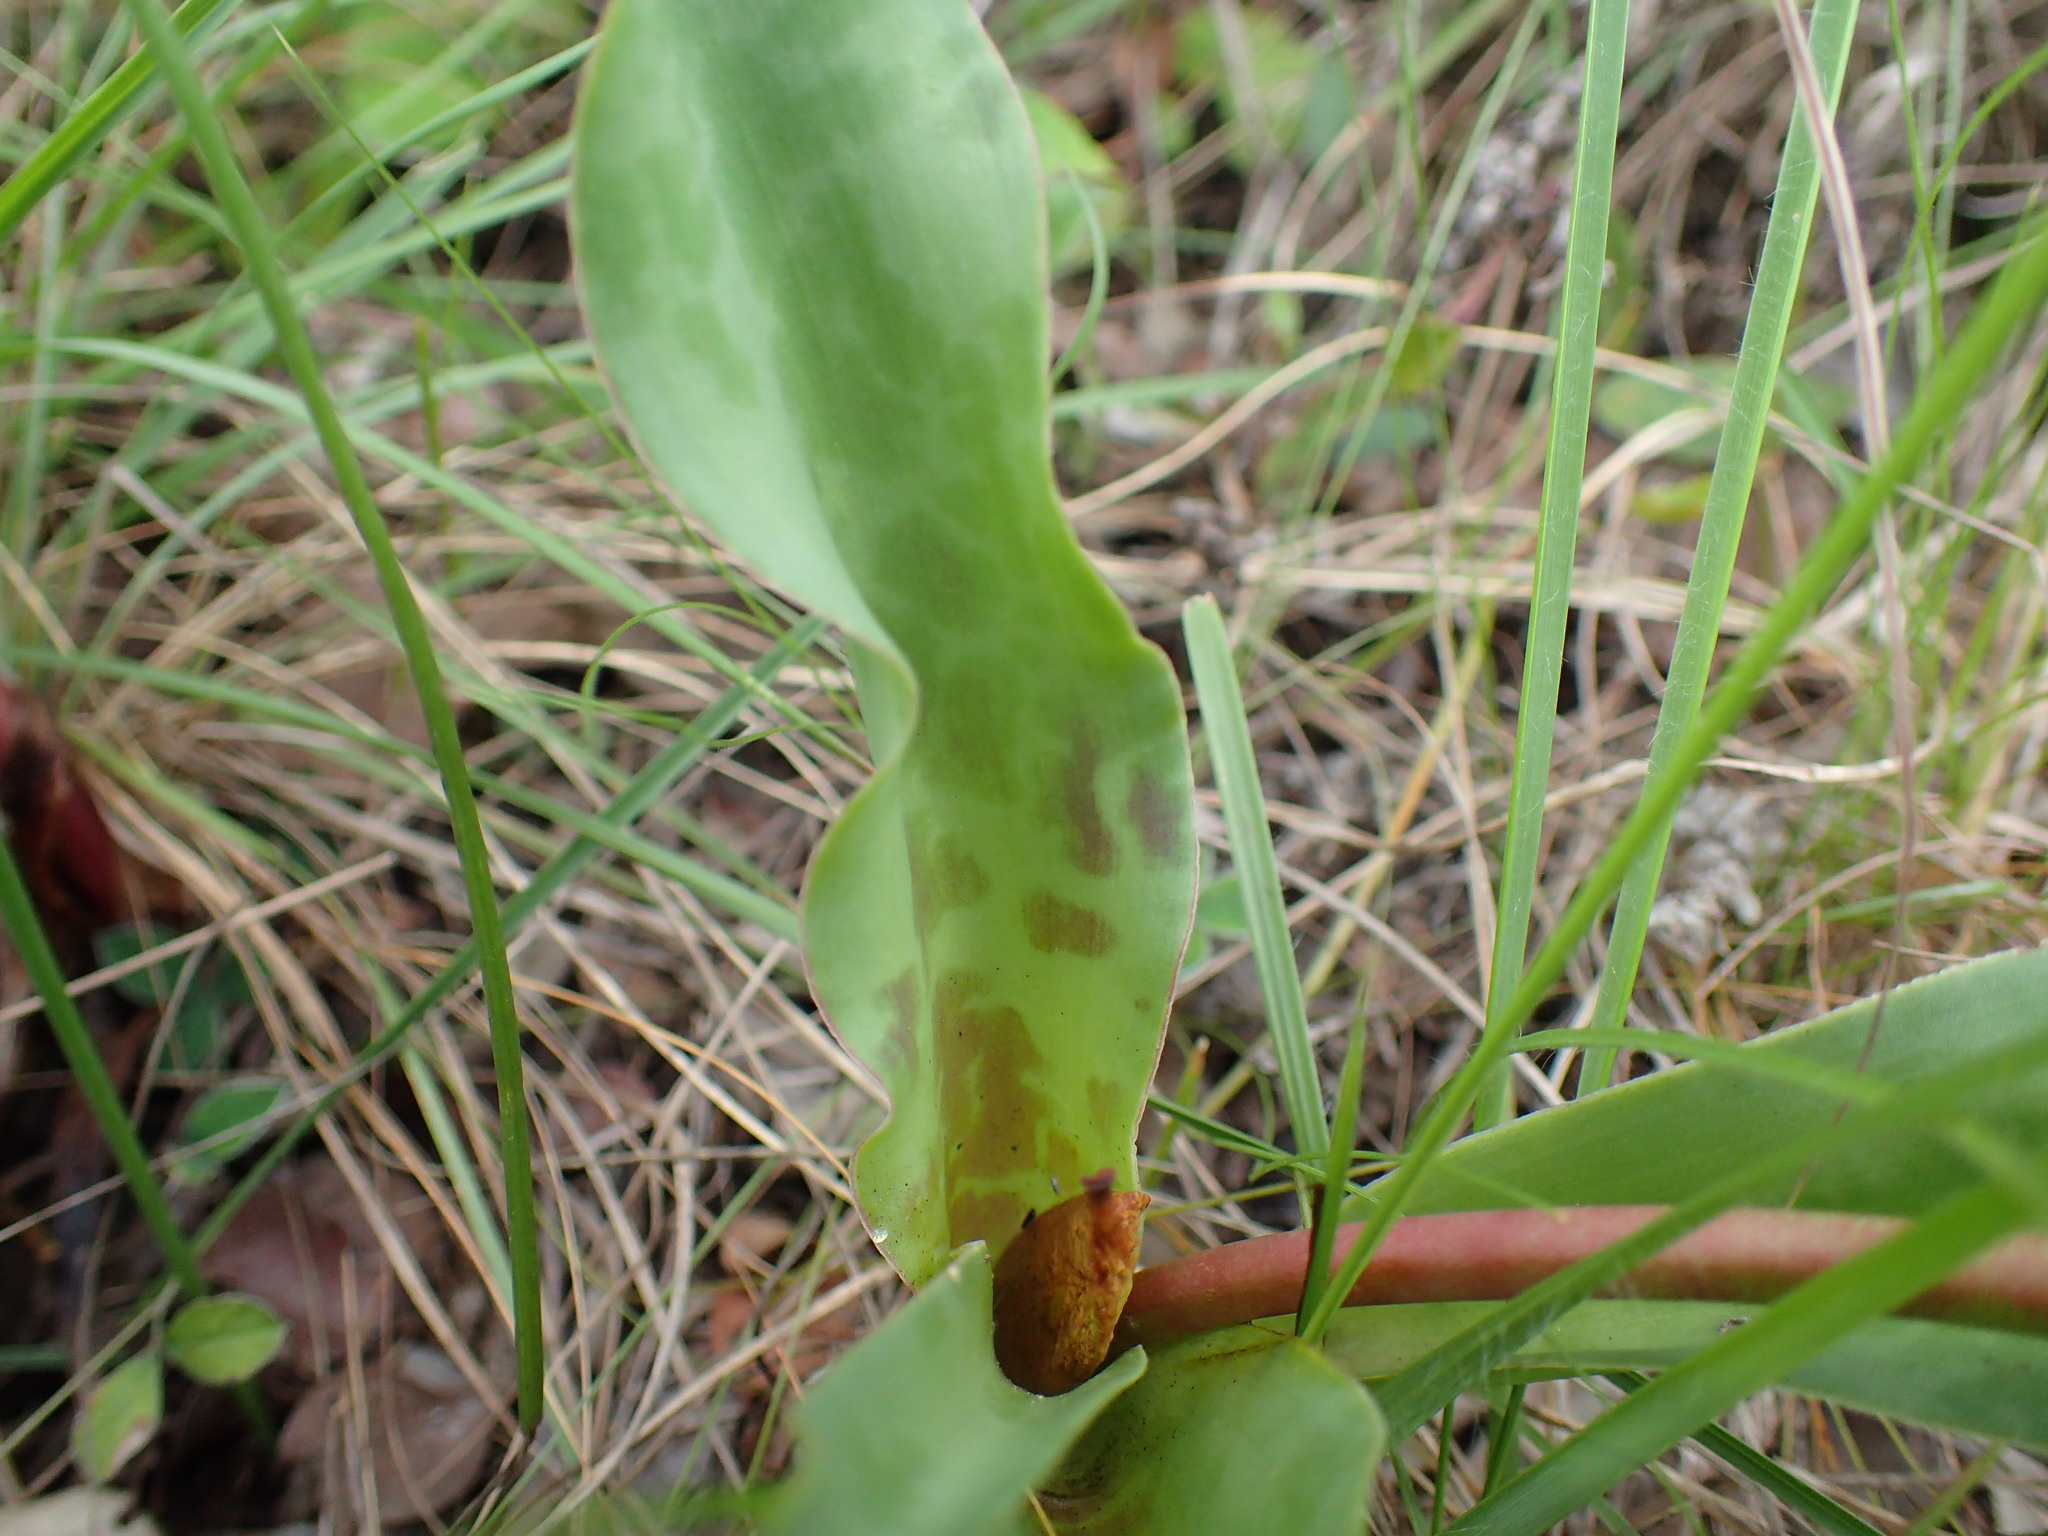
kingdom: Plantae
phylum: Tracheophyta
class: Liliopsida
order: Asparagales
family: Asparagaceae
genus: Ledebouria
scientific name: Ledebouria floribunda
